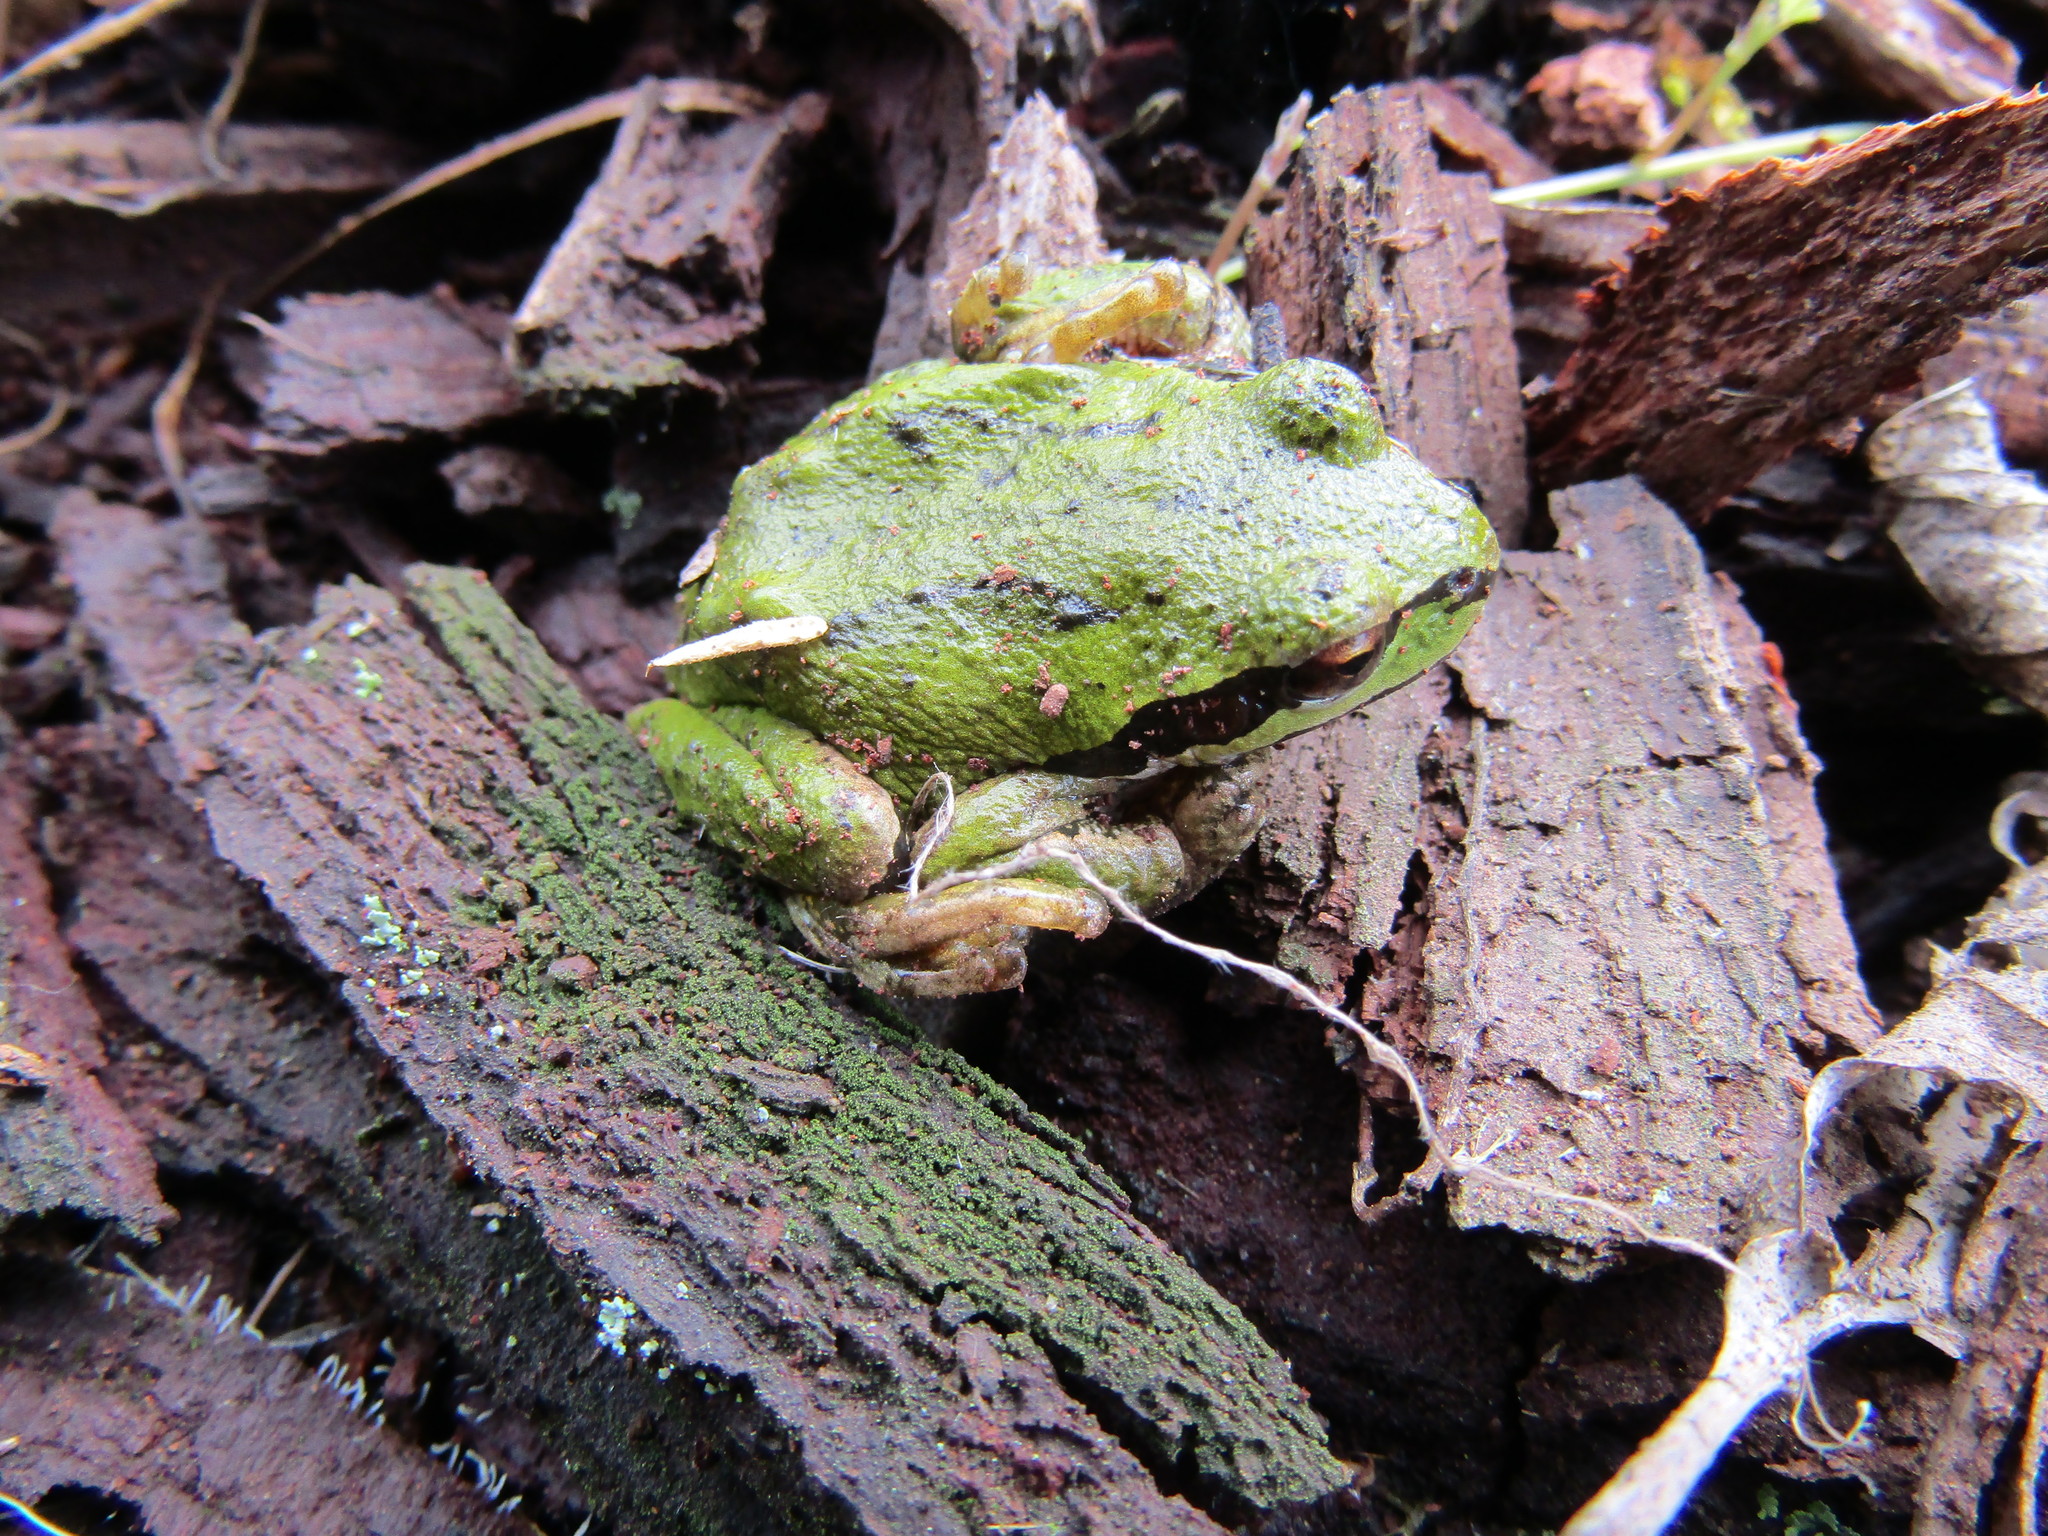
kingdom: Animalia
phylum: Chordata
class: Amphibia
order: Anura
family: Hylidae
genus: Pseudacris
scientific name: Pseudacris regilla
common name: Pacific chorus frog
